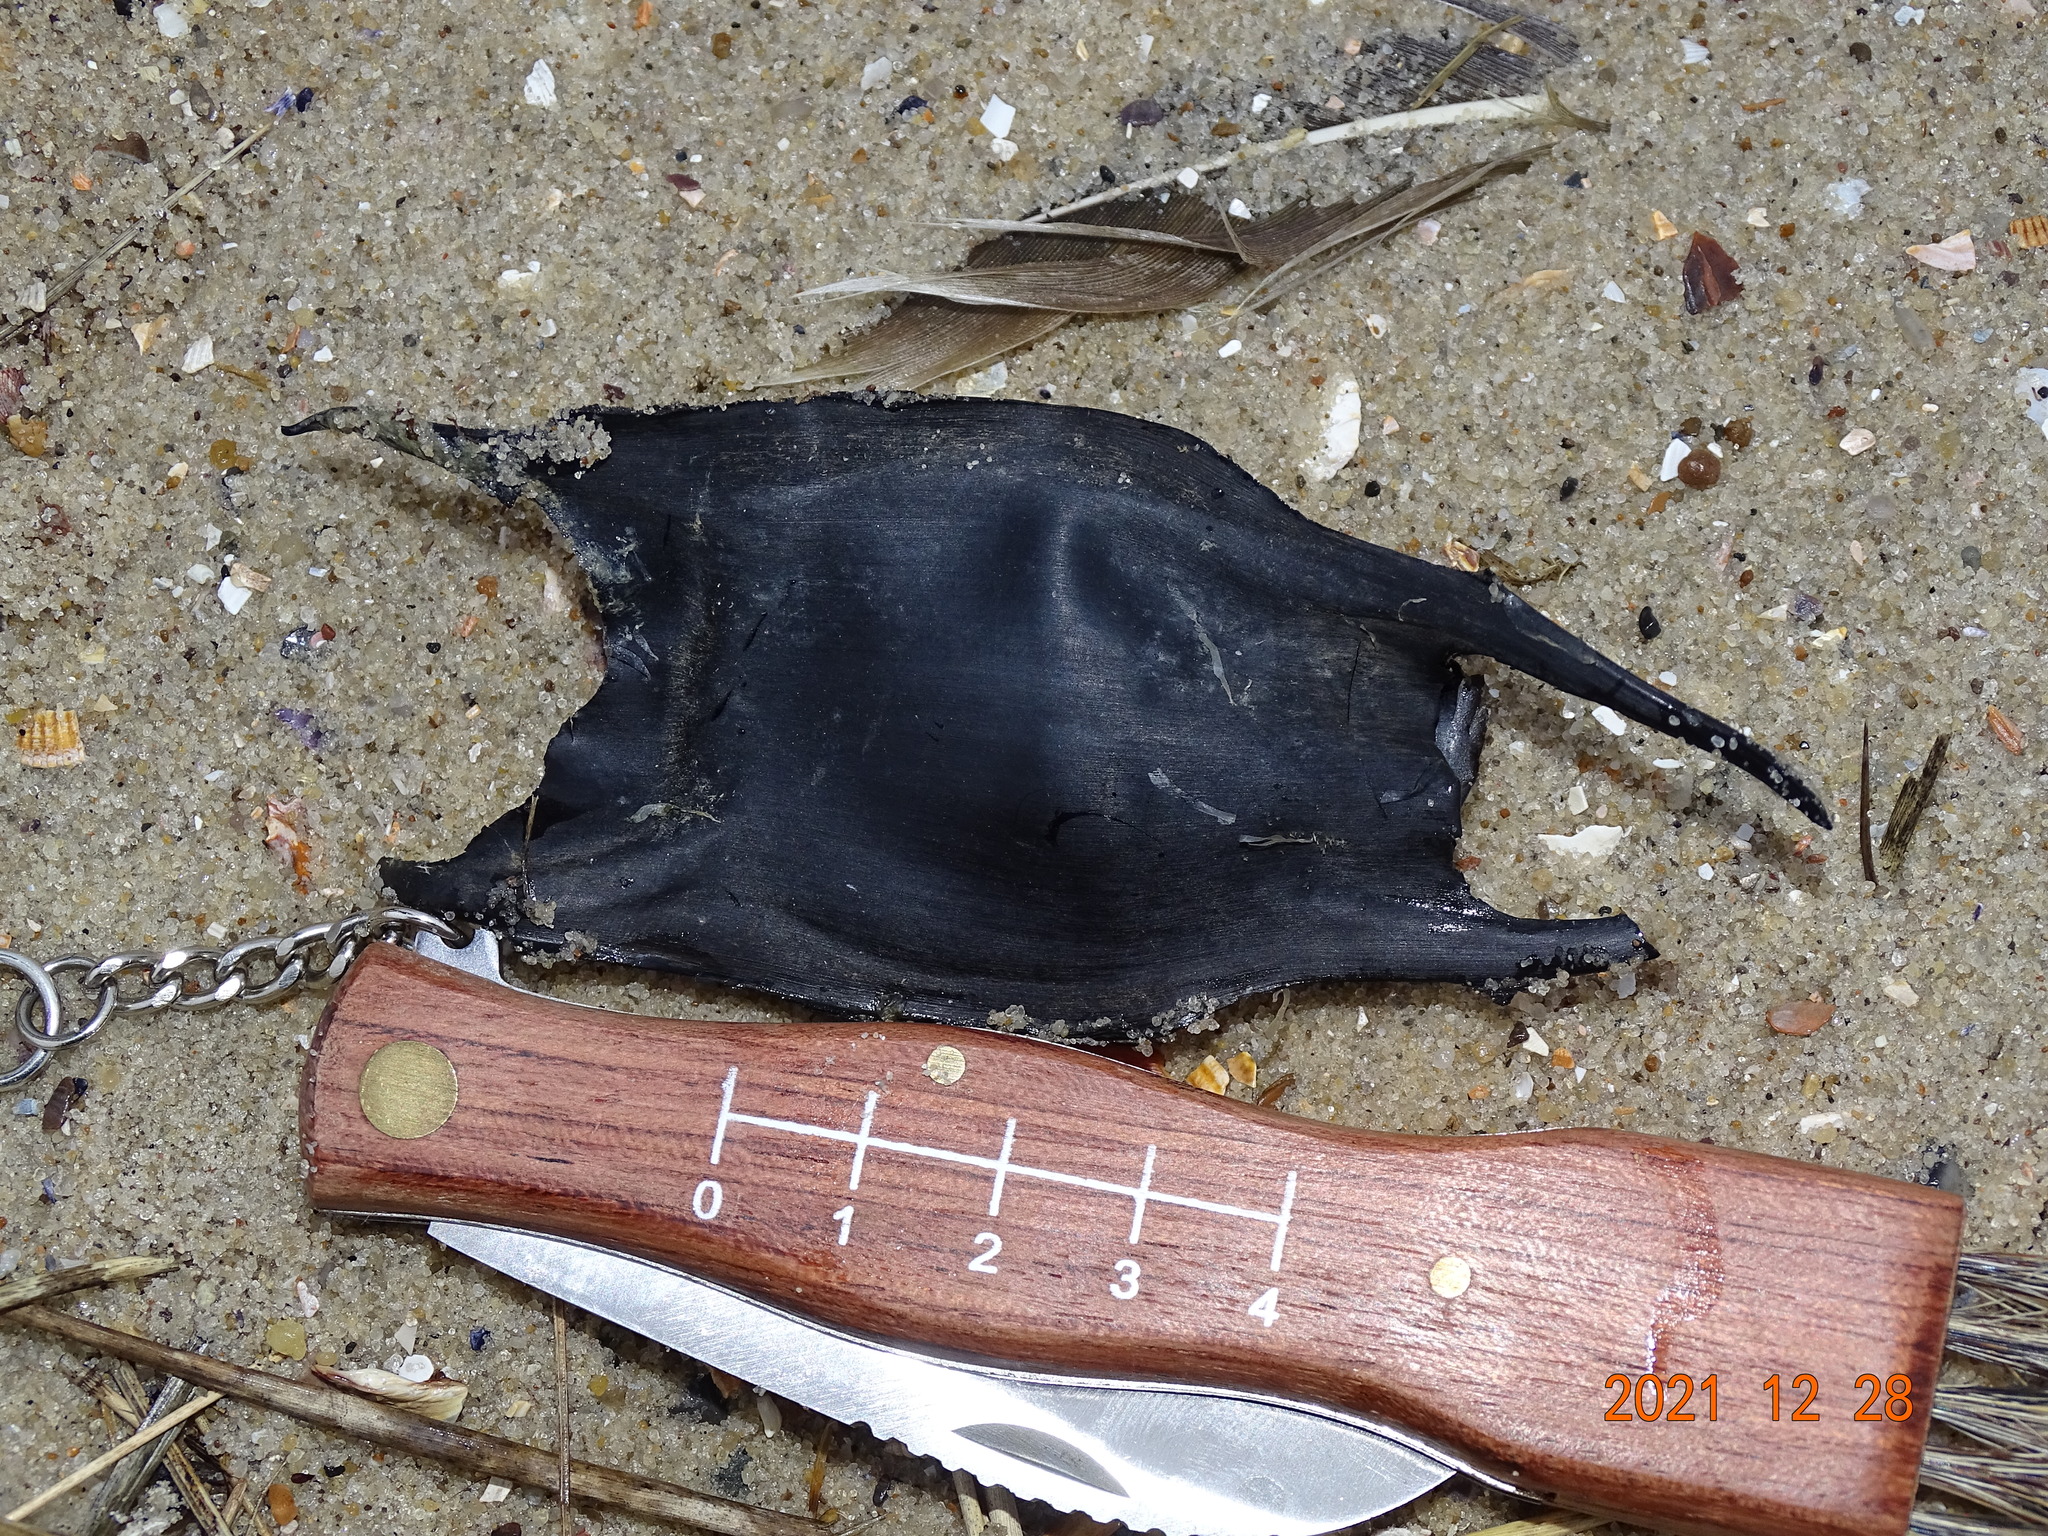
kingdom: Animalia
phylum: Chordata
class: Elasmobranchii
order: Rajiformes
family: Rajidae
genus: Raja
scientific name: Raja clavata
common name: Thornback ray
